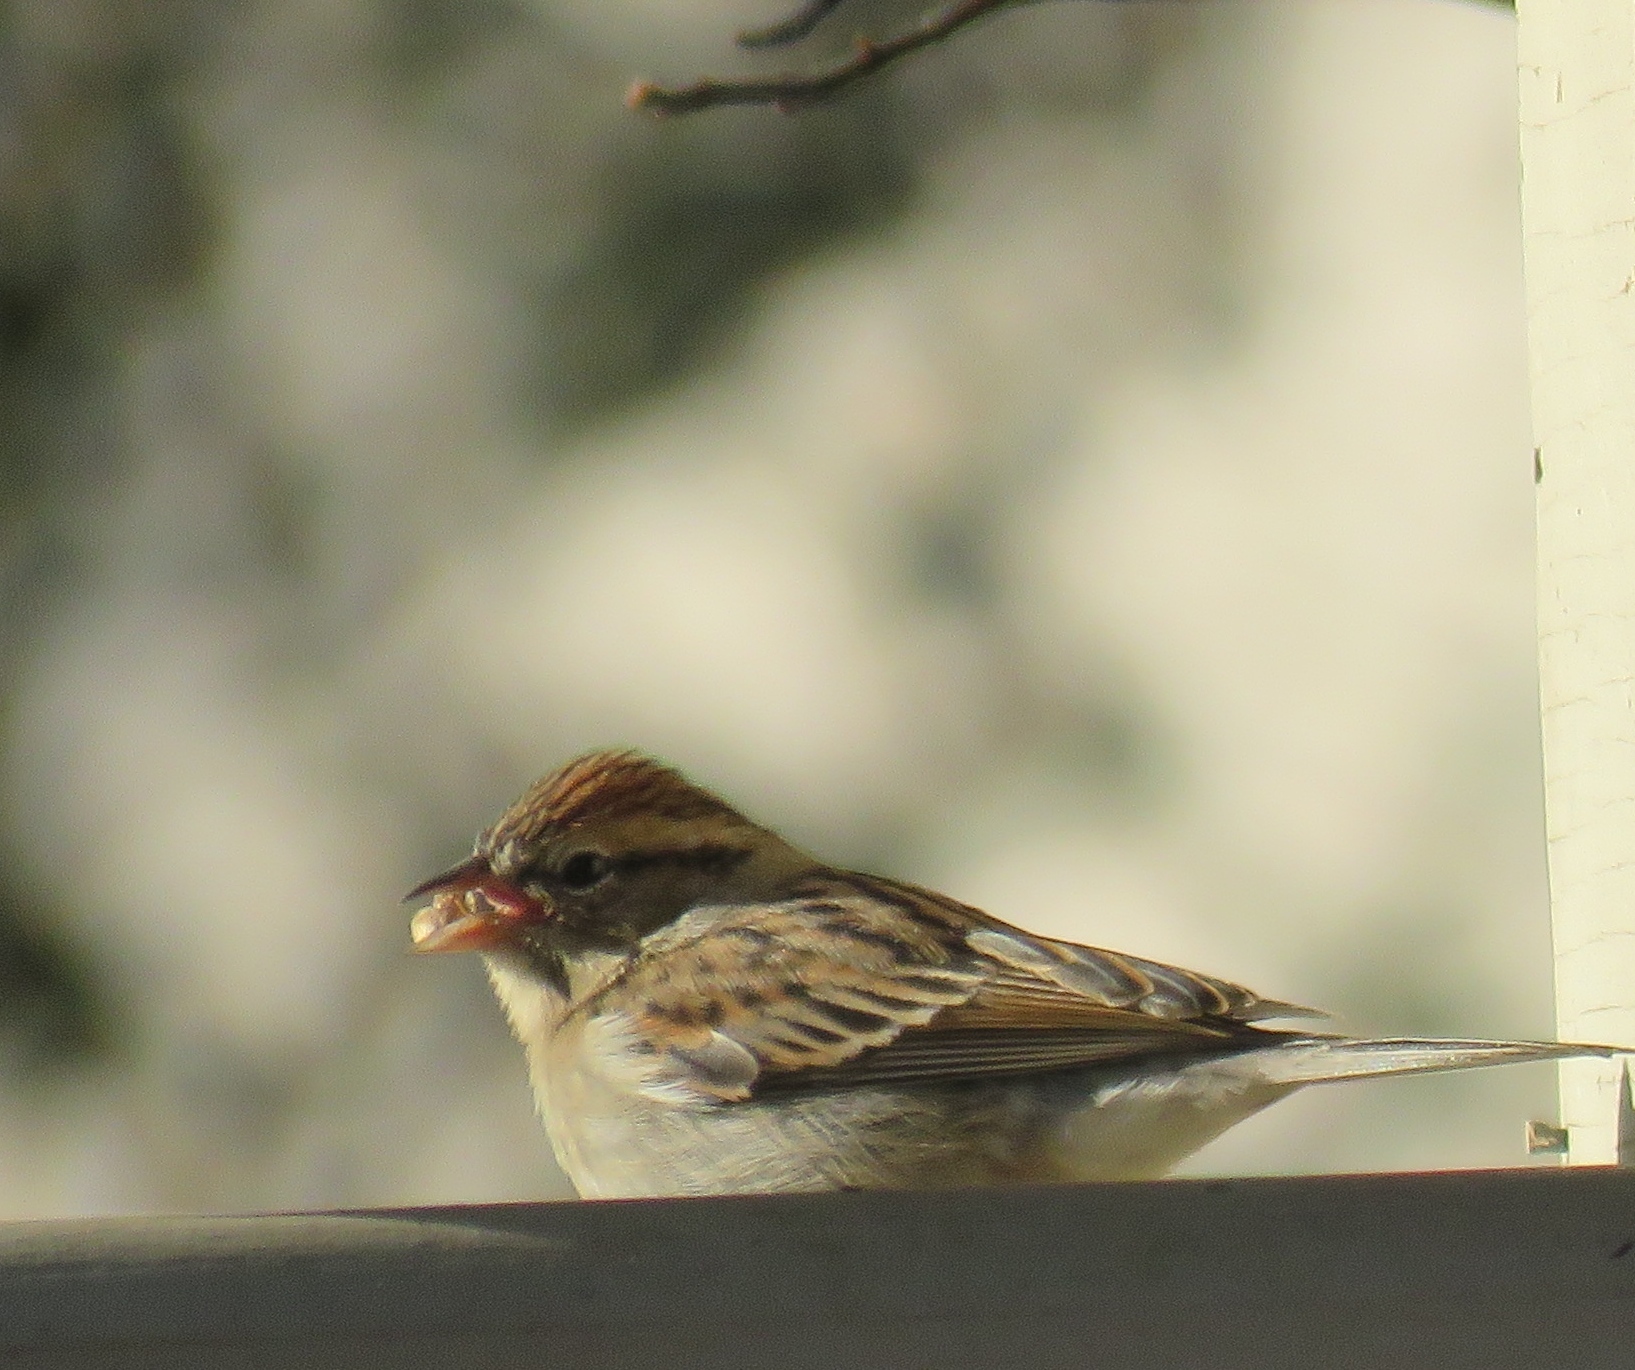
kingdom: Animalia
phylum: Chordata
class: Aves
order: Passeriformes
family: Passerellidae
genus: Spizella
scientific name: Spizella passerina
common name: Chipping sparrow
